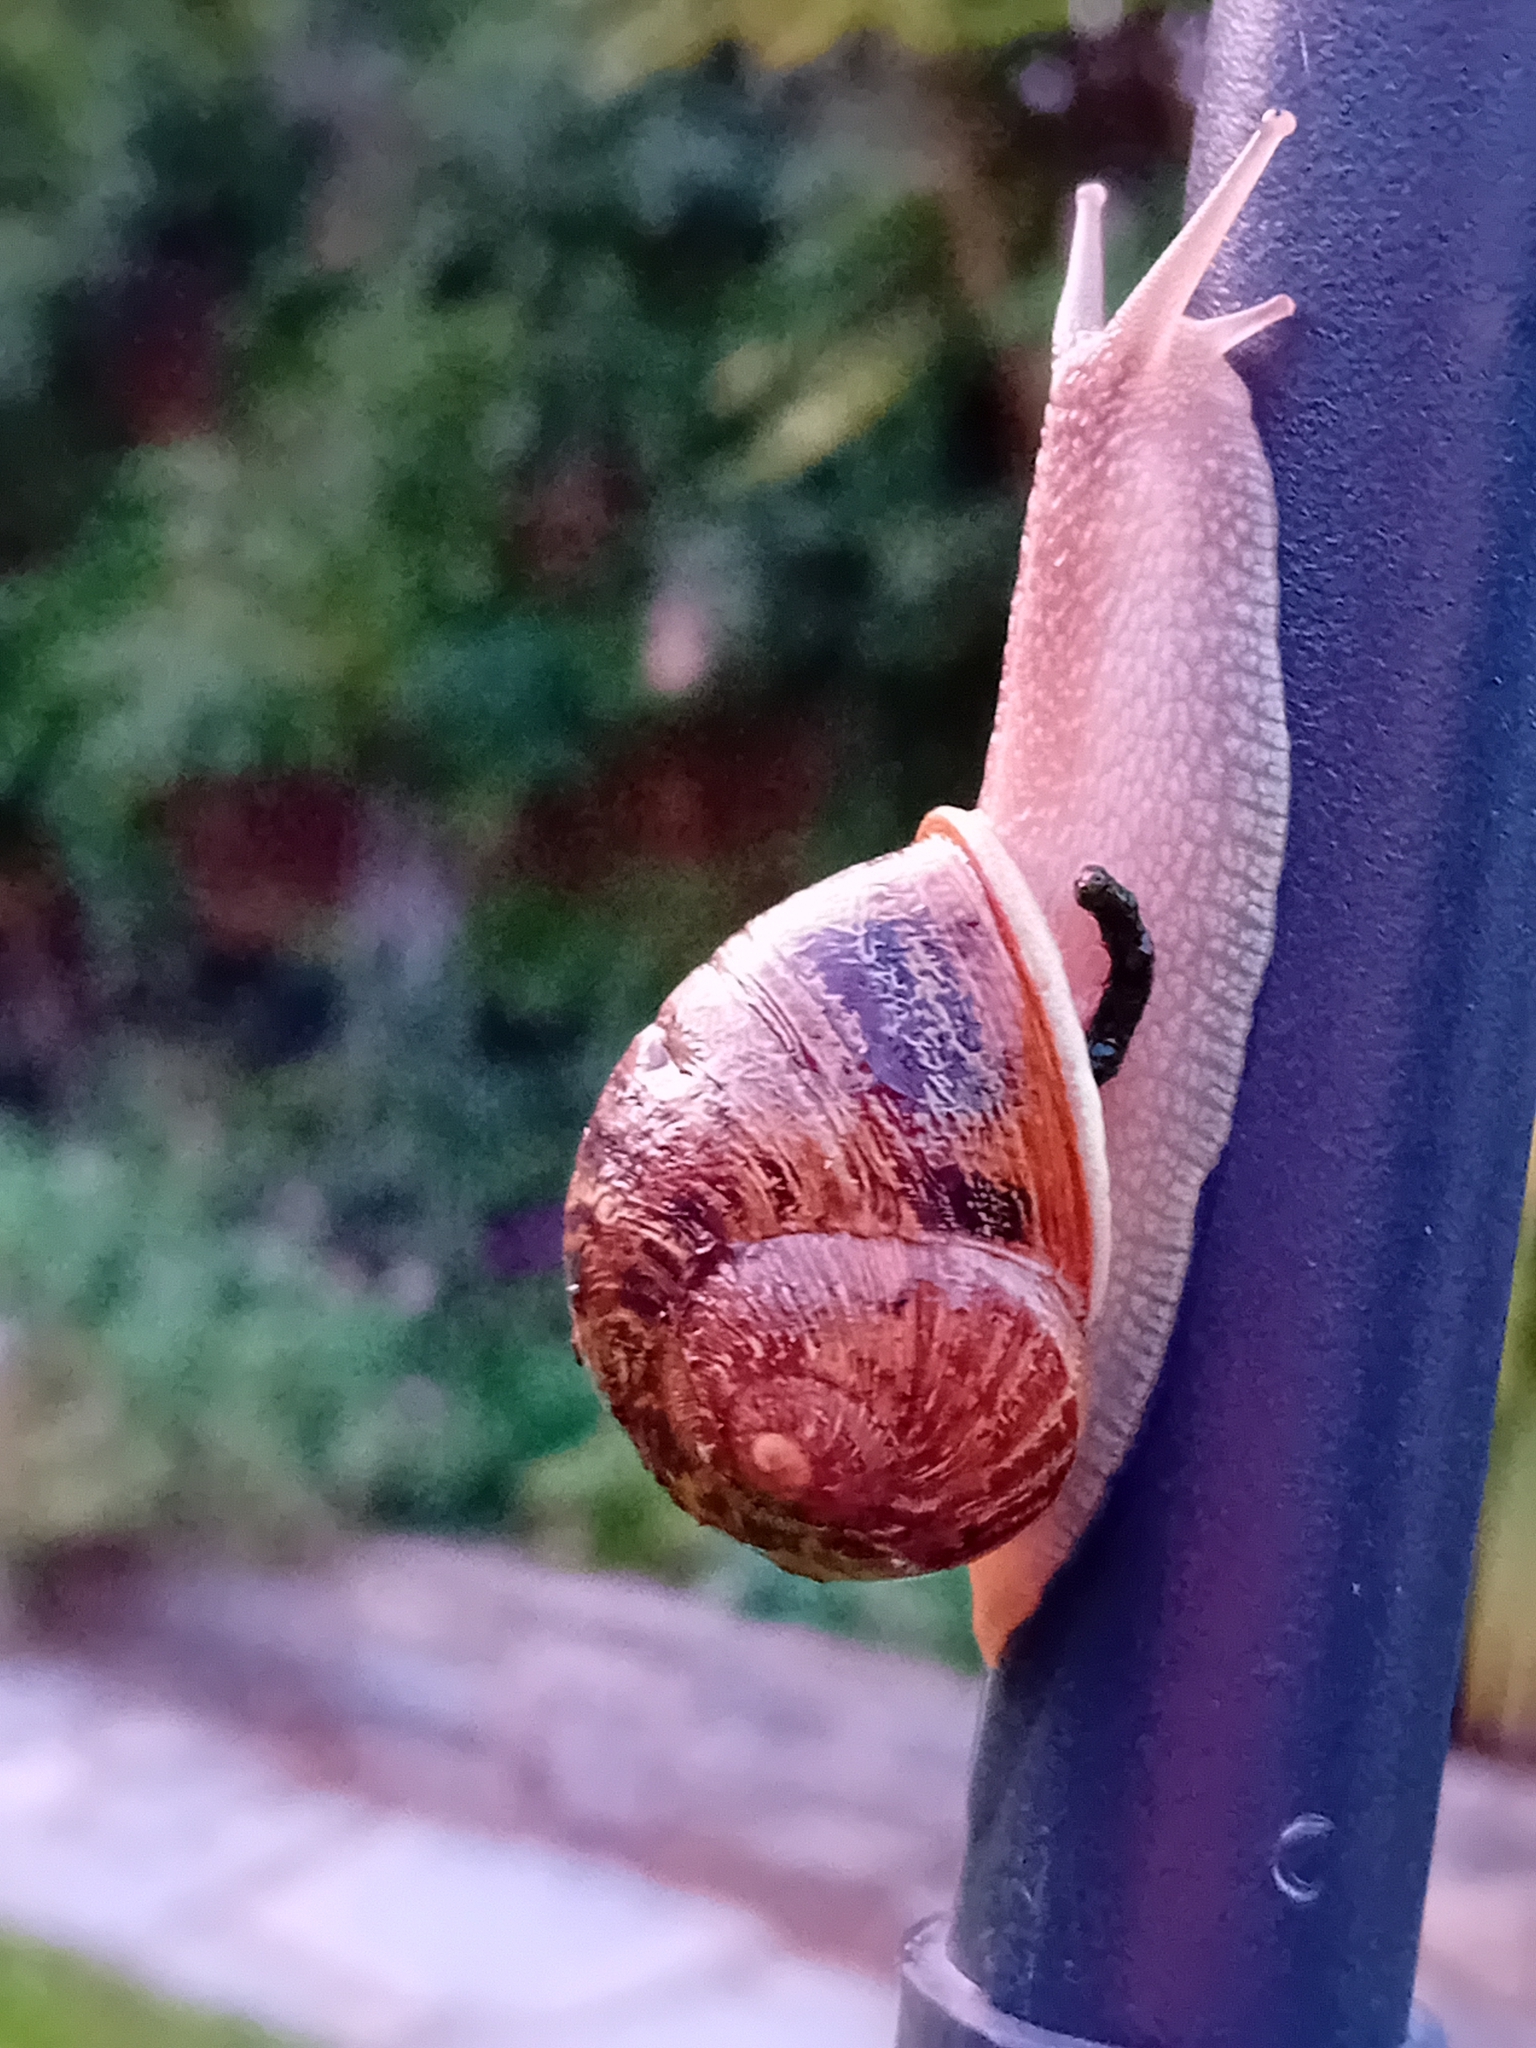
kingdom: Animalia
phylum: Mollusca
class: Gastropoda
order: Stylommatophora
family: Helicidae
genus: Cornu
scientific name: Cornu aspersum
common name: Brown garden snail
